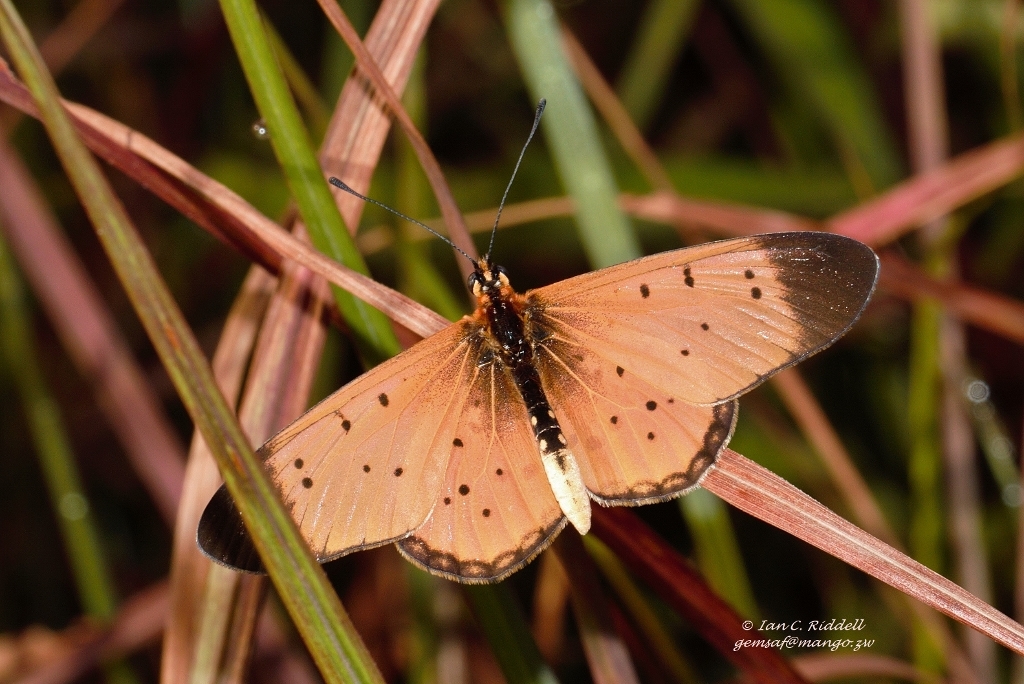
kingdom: Animalia
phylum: Arthropoda
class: Insecta
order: Lepidoptera
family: Nymphalidae
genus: Stephenia
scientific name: Stephenia
